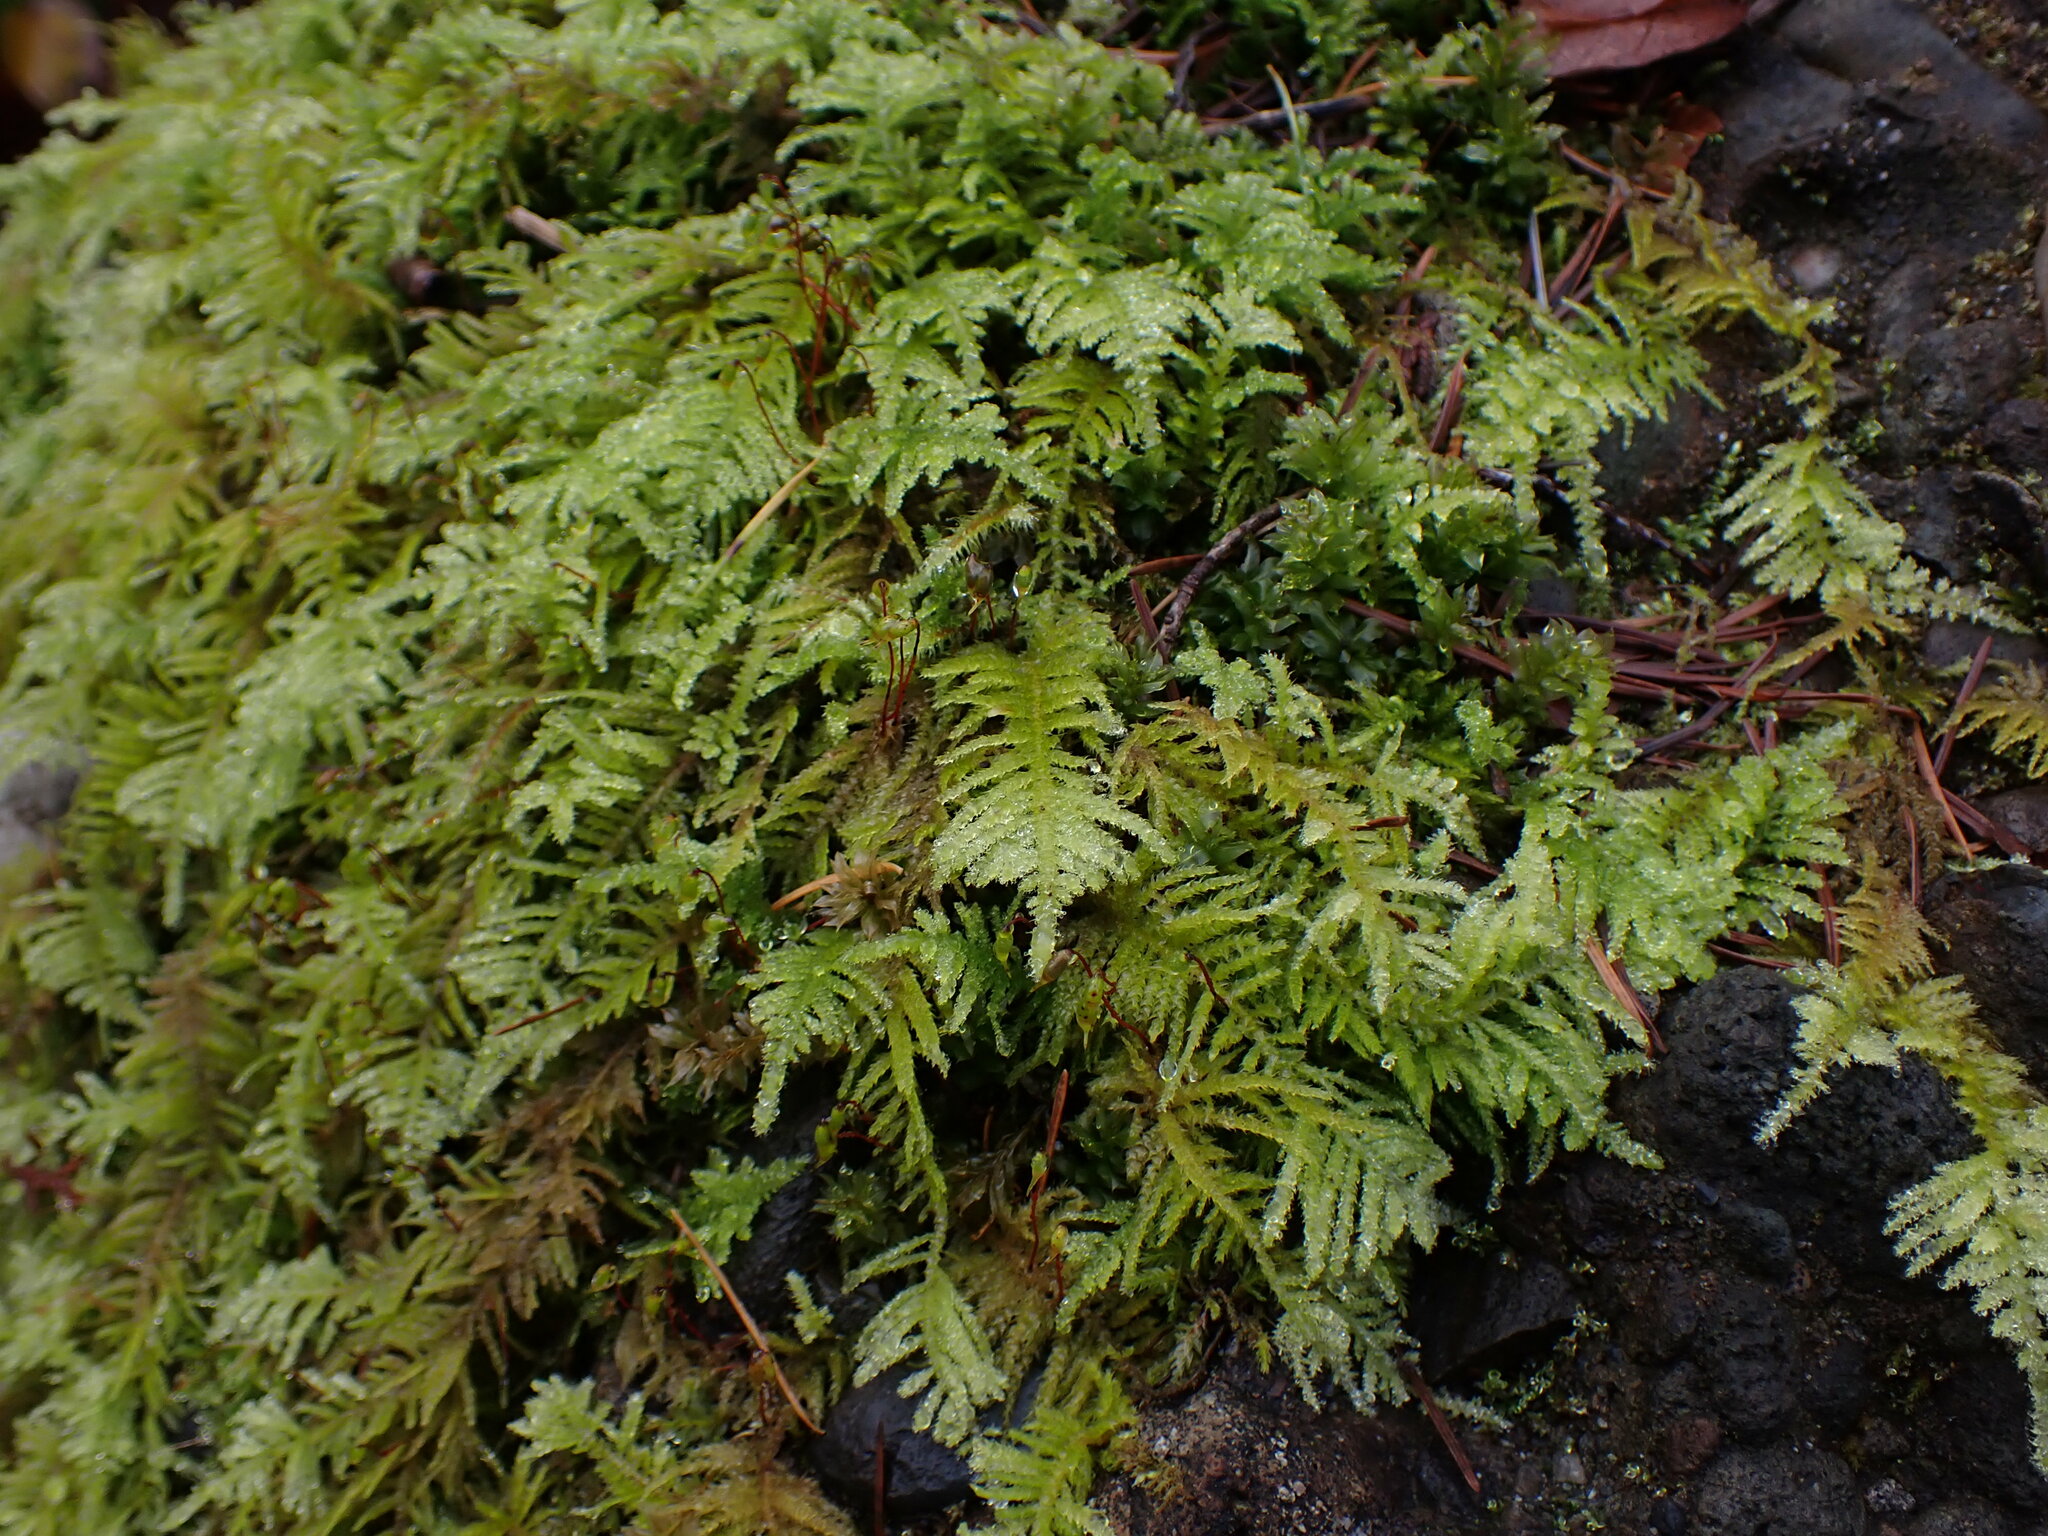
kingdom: Plantae
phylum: Bryophyta
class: Bryopsida
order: Hypnales
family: Brachytheciaceae
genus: Kindbergia
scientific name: Kindbergia oregana
